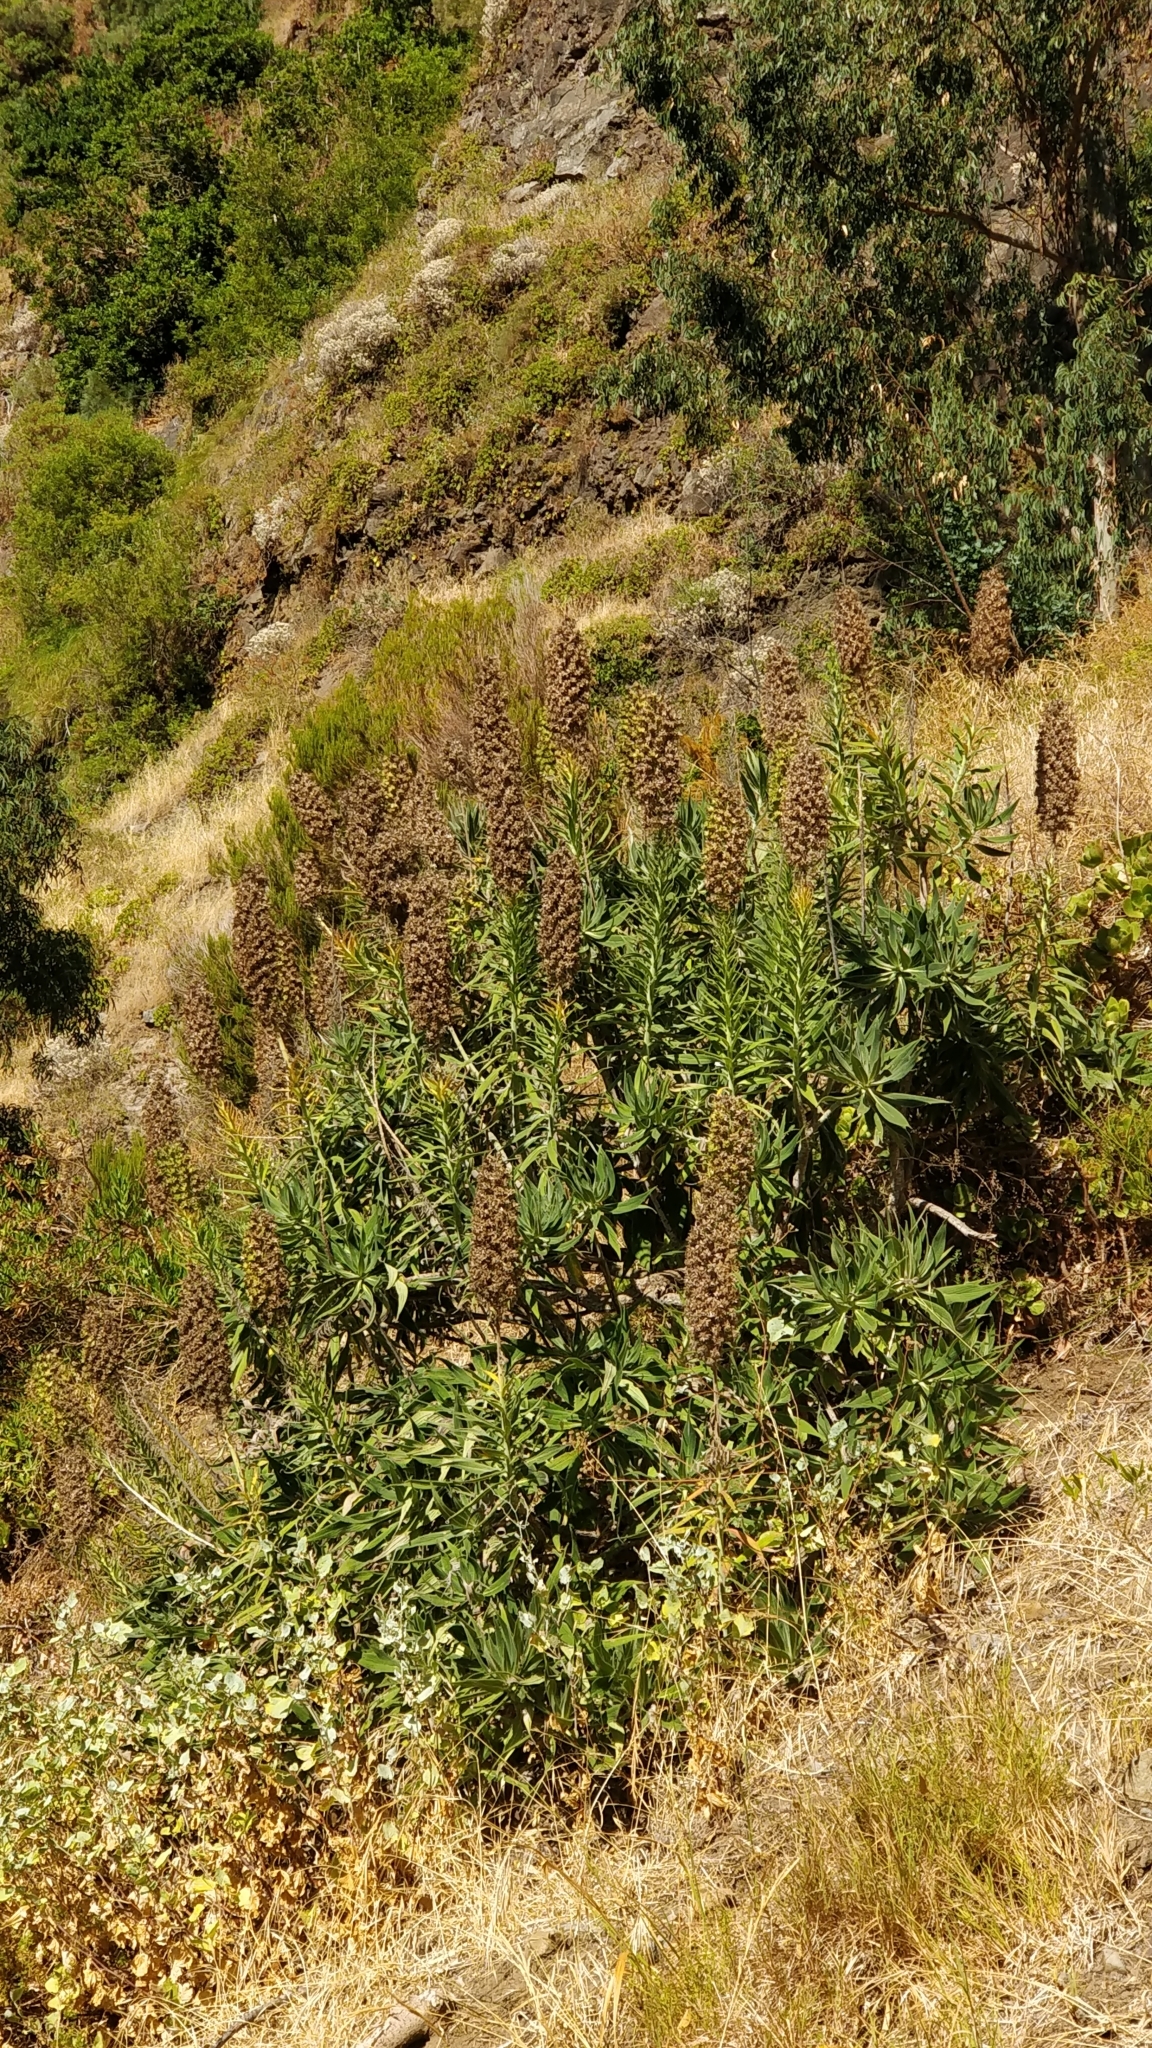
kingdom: Plantae
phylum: Tracheophyta
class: Magnoliopsida
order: Boraginales
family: Boraginaceae
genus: Echium
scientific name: Echium candicans
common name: Pride of madeira
